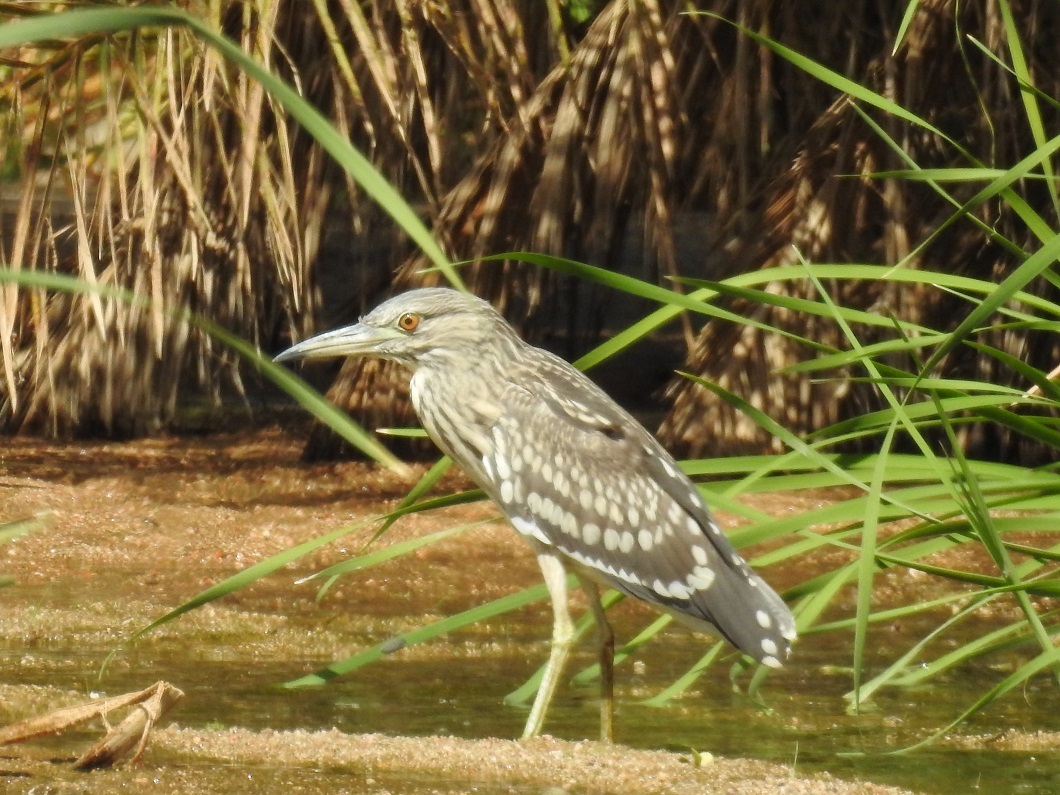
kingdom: Animalia
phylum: Chordata
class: Aves
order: Pelecaniformes
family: Ardeidae
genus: Nycticorax
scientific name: Nycticorax nycticorax
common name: Black-crowned night heron
